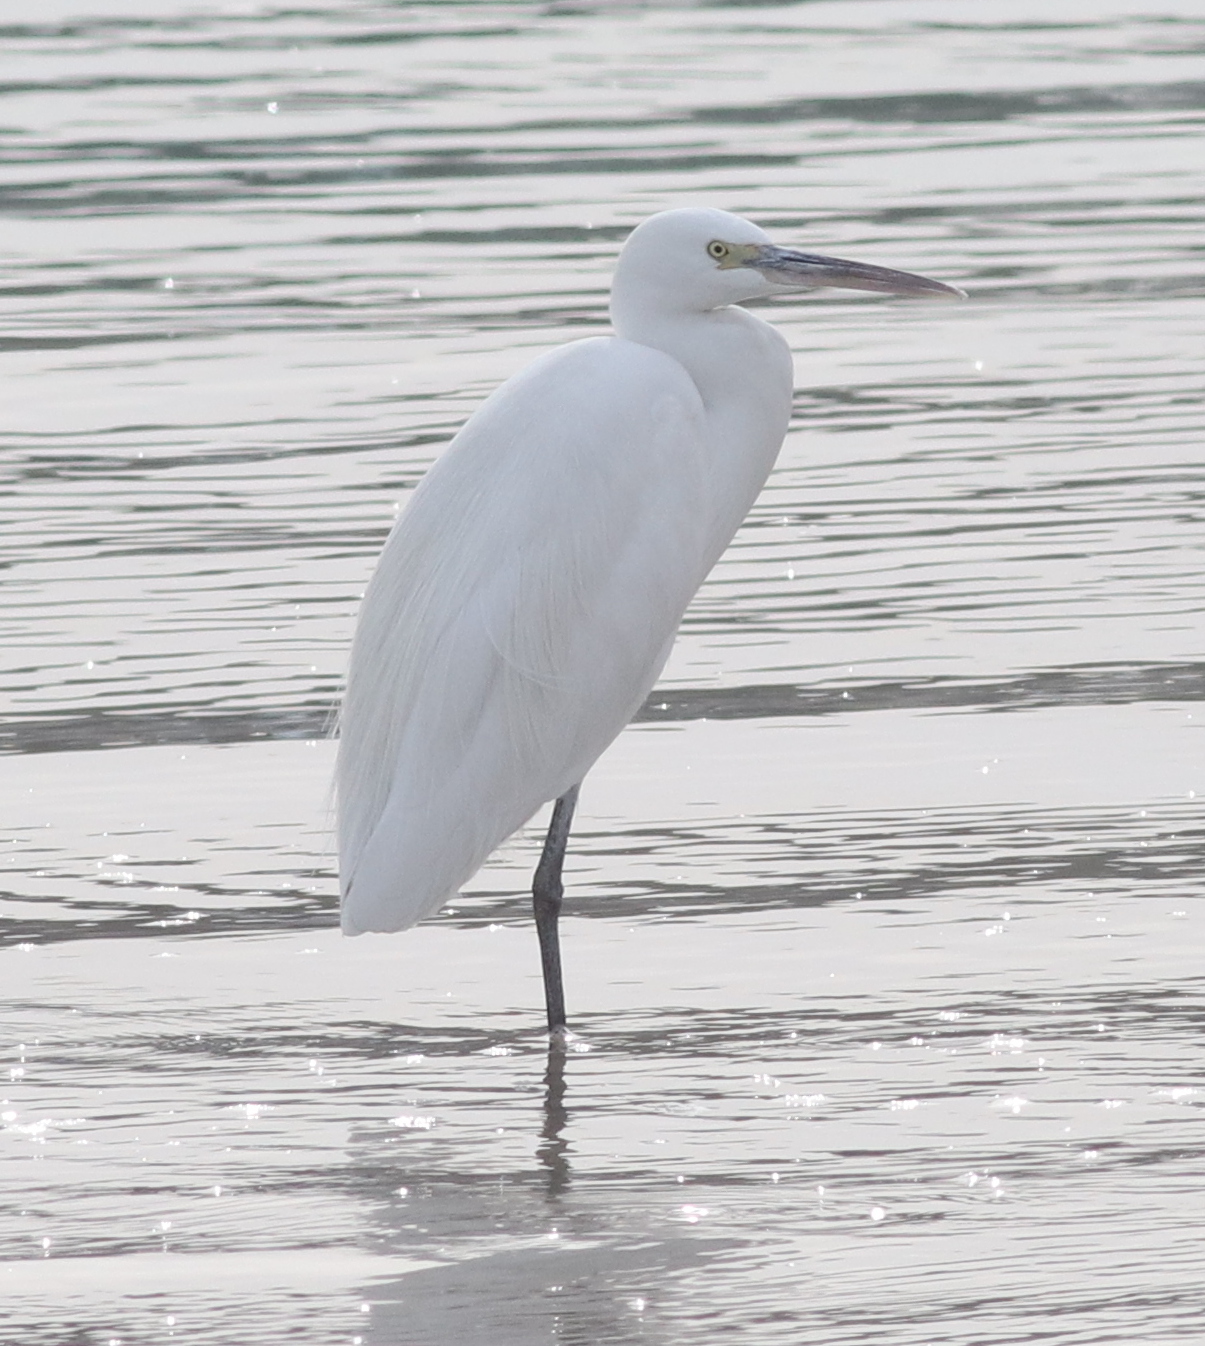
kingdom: Animalia
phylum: Chordata
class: Aves
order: Pelecaniformes
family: Ardeidae
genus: Egretta
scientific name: Egretta gularis
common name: Western reef-heron
